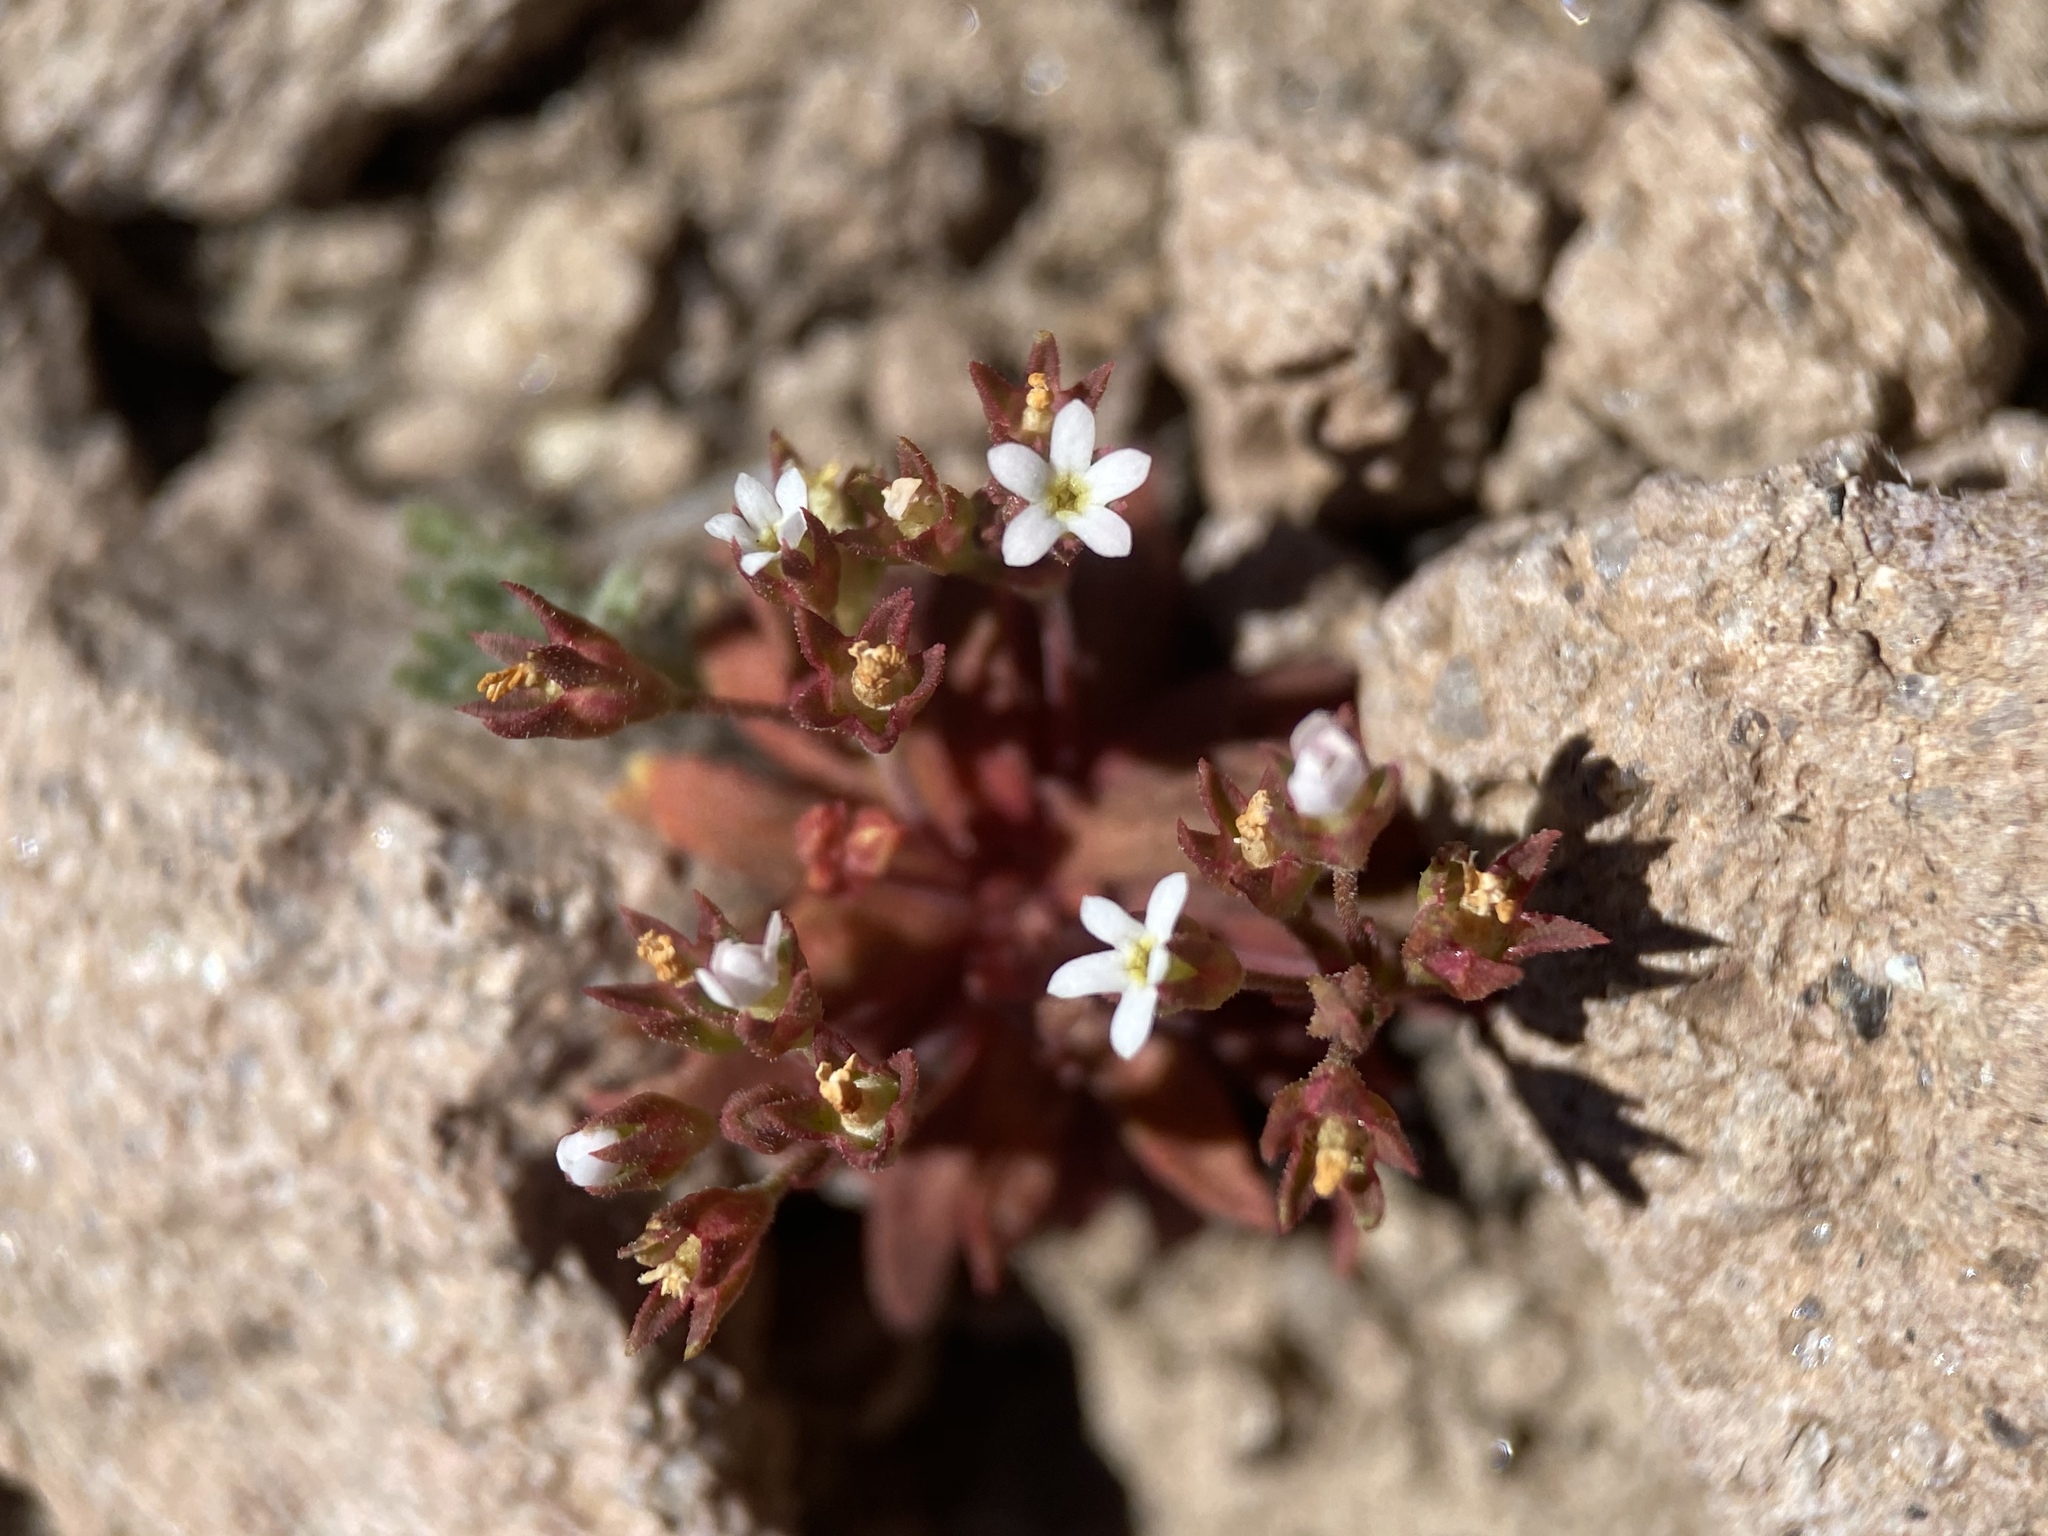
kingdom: Plantae
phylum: Tracheophyta
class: Magnoliopsida
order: Ericales
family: Primulaceae
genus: Androsace
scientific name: Androsace septentrionalis
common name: Hairy northern fairy-candelabra
